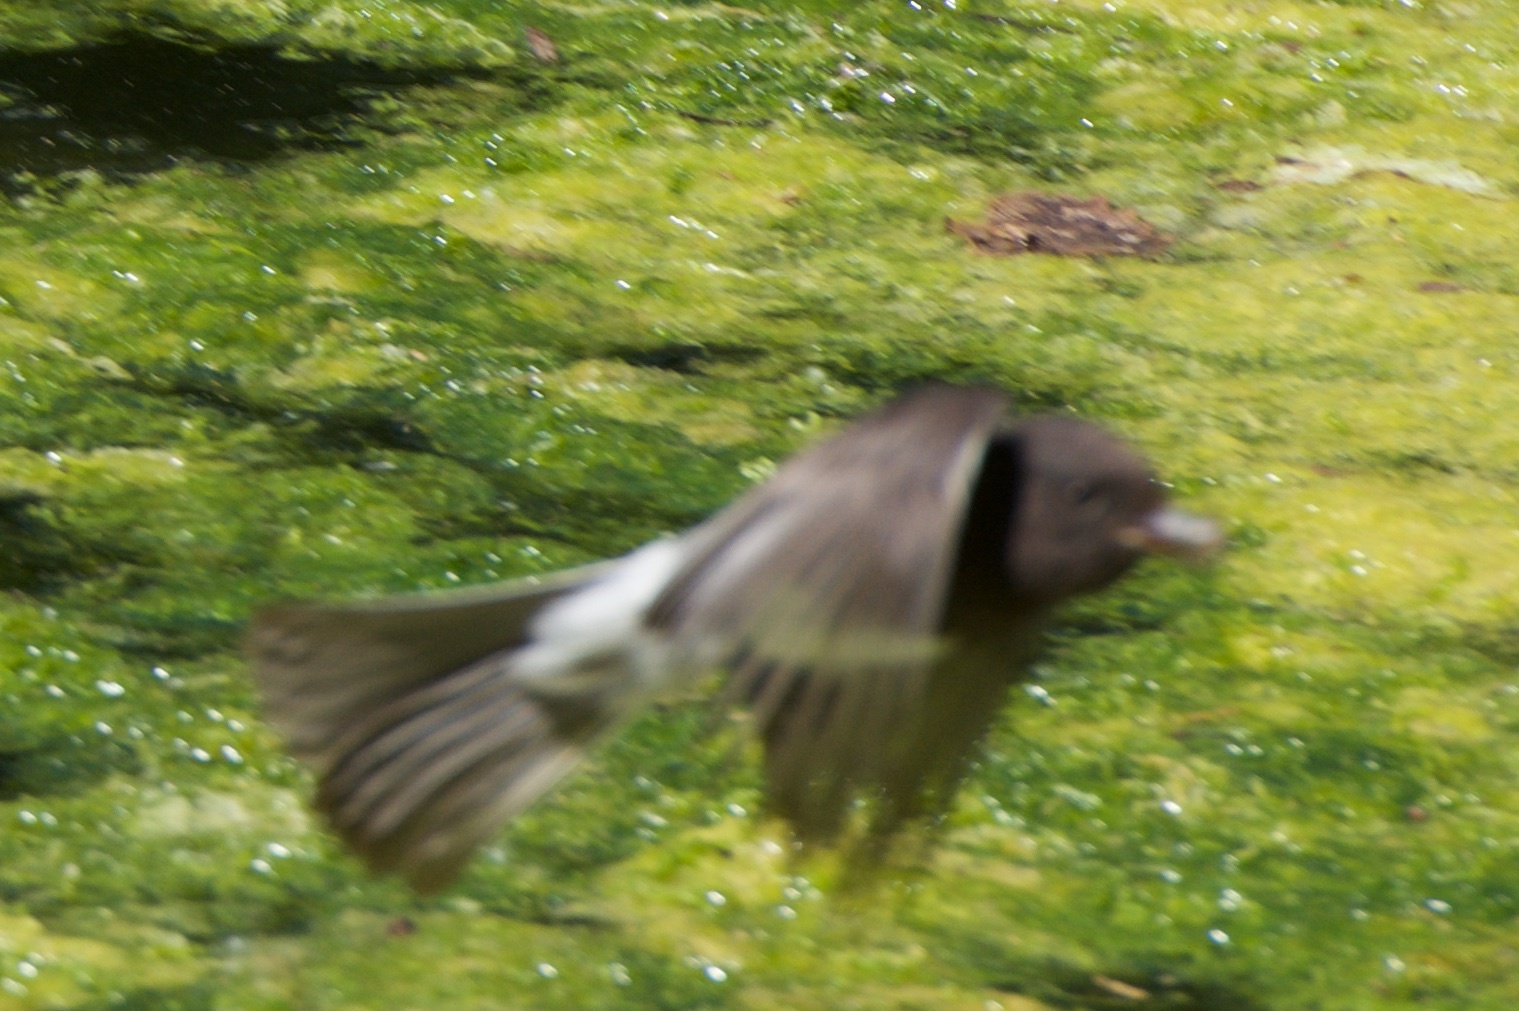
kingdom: Animalia
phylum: Chordata
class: Aves
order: Passeriformes
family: Tyrannidae
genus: Sayornis
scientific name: Sayornis nigricans
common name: Black phoebe
